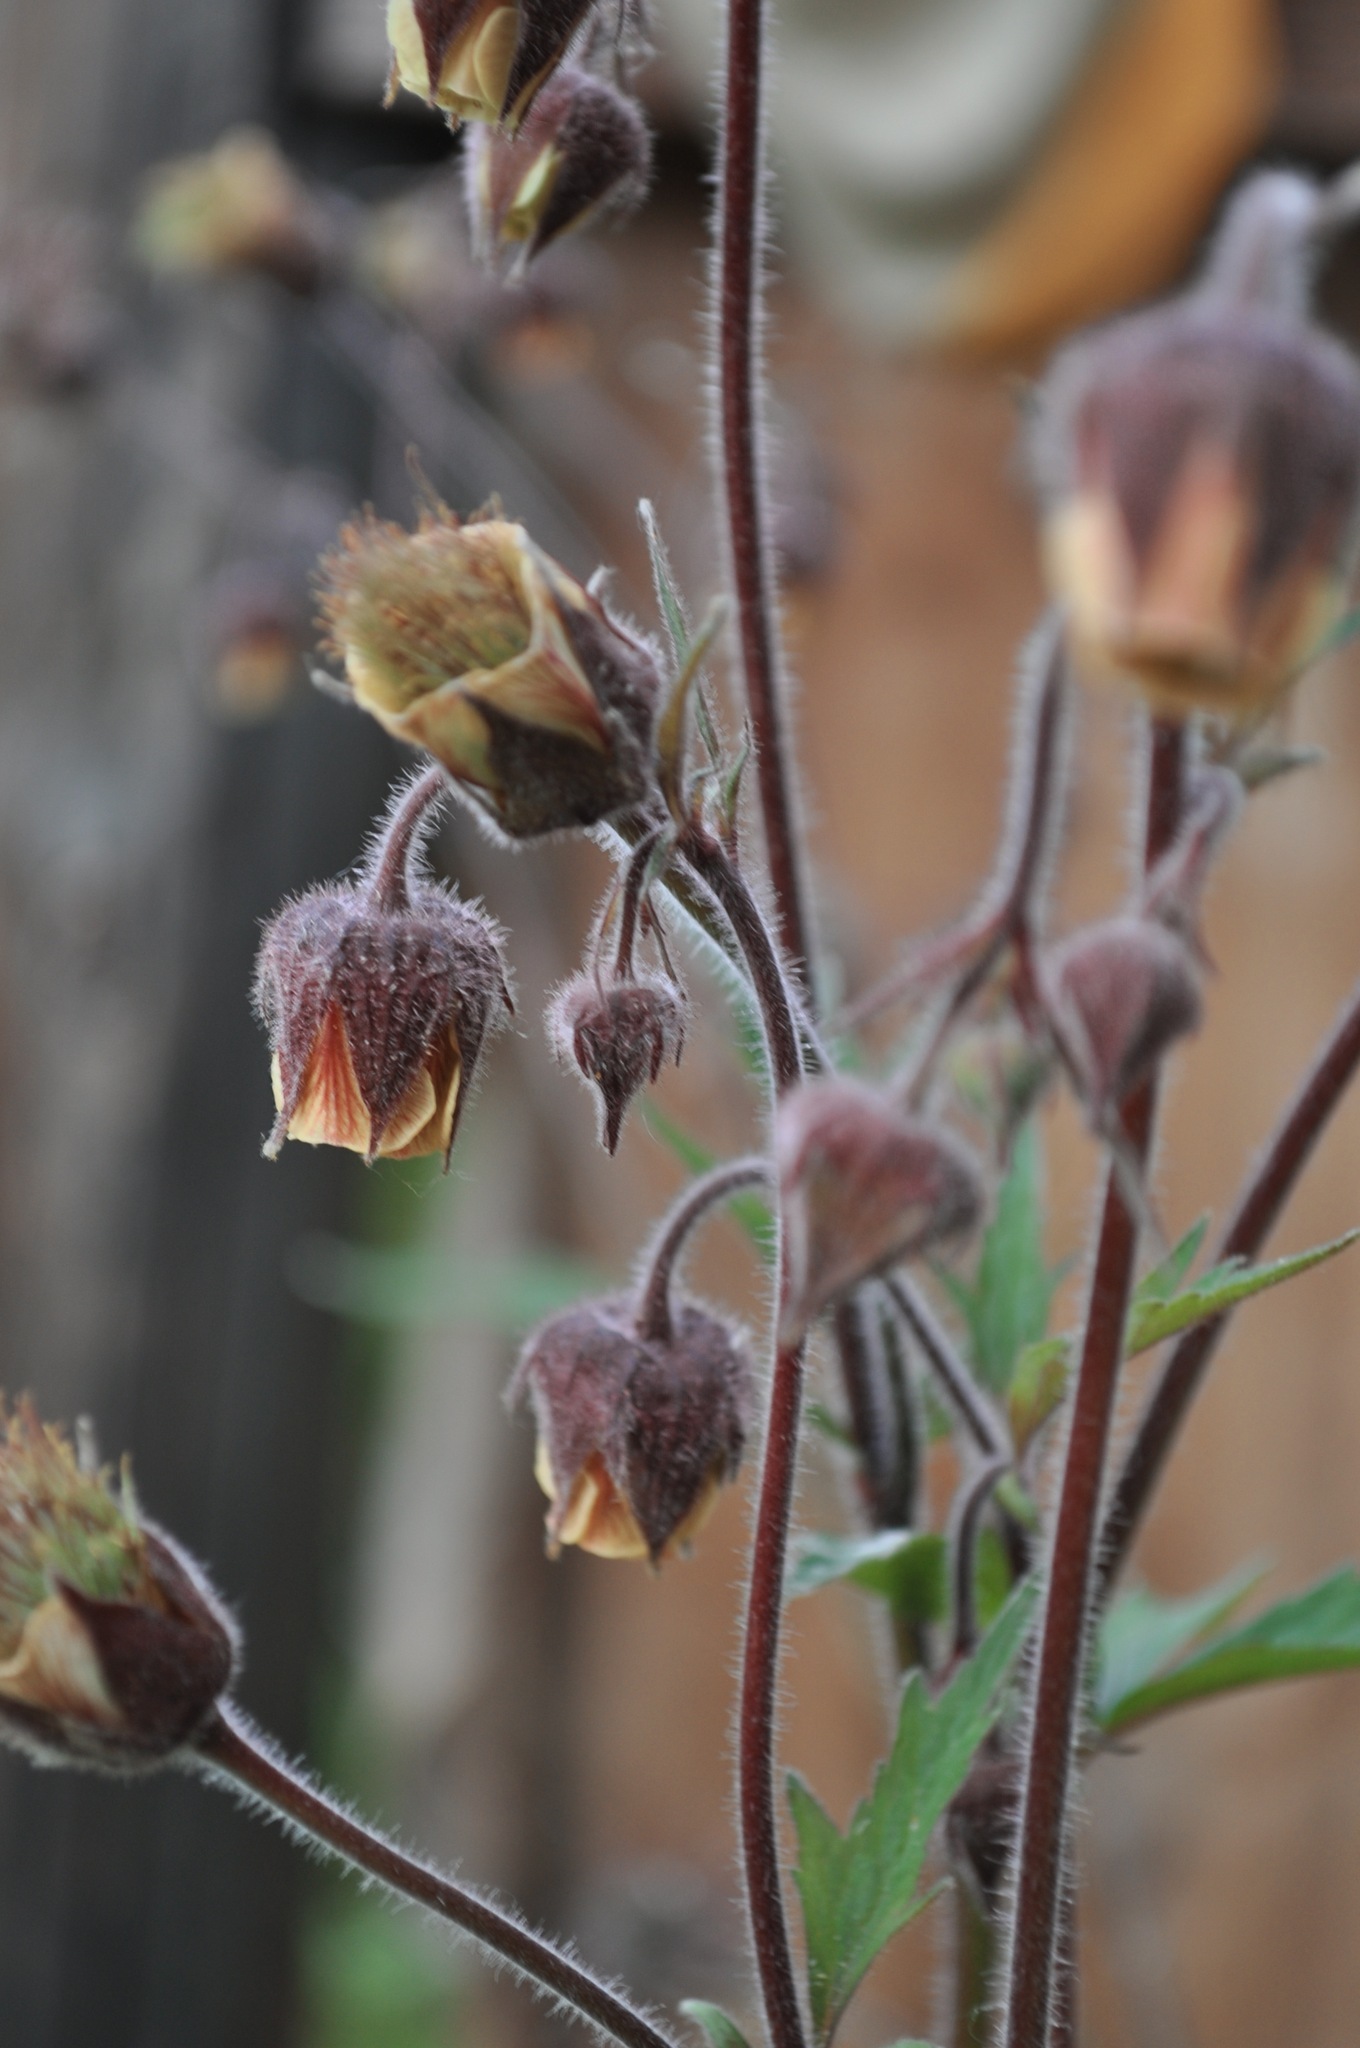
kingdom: Plantae
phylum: Tracheophyta
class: Magnoliopsida
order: Rosales
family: Rosaceae
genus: Geum
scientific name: Geum rivale
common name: Water avens
